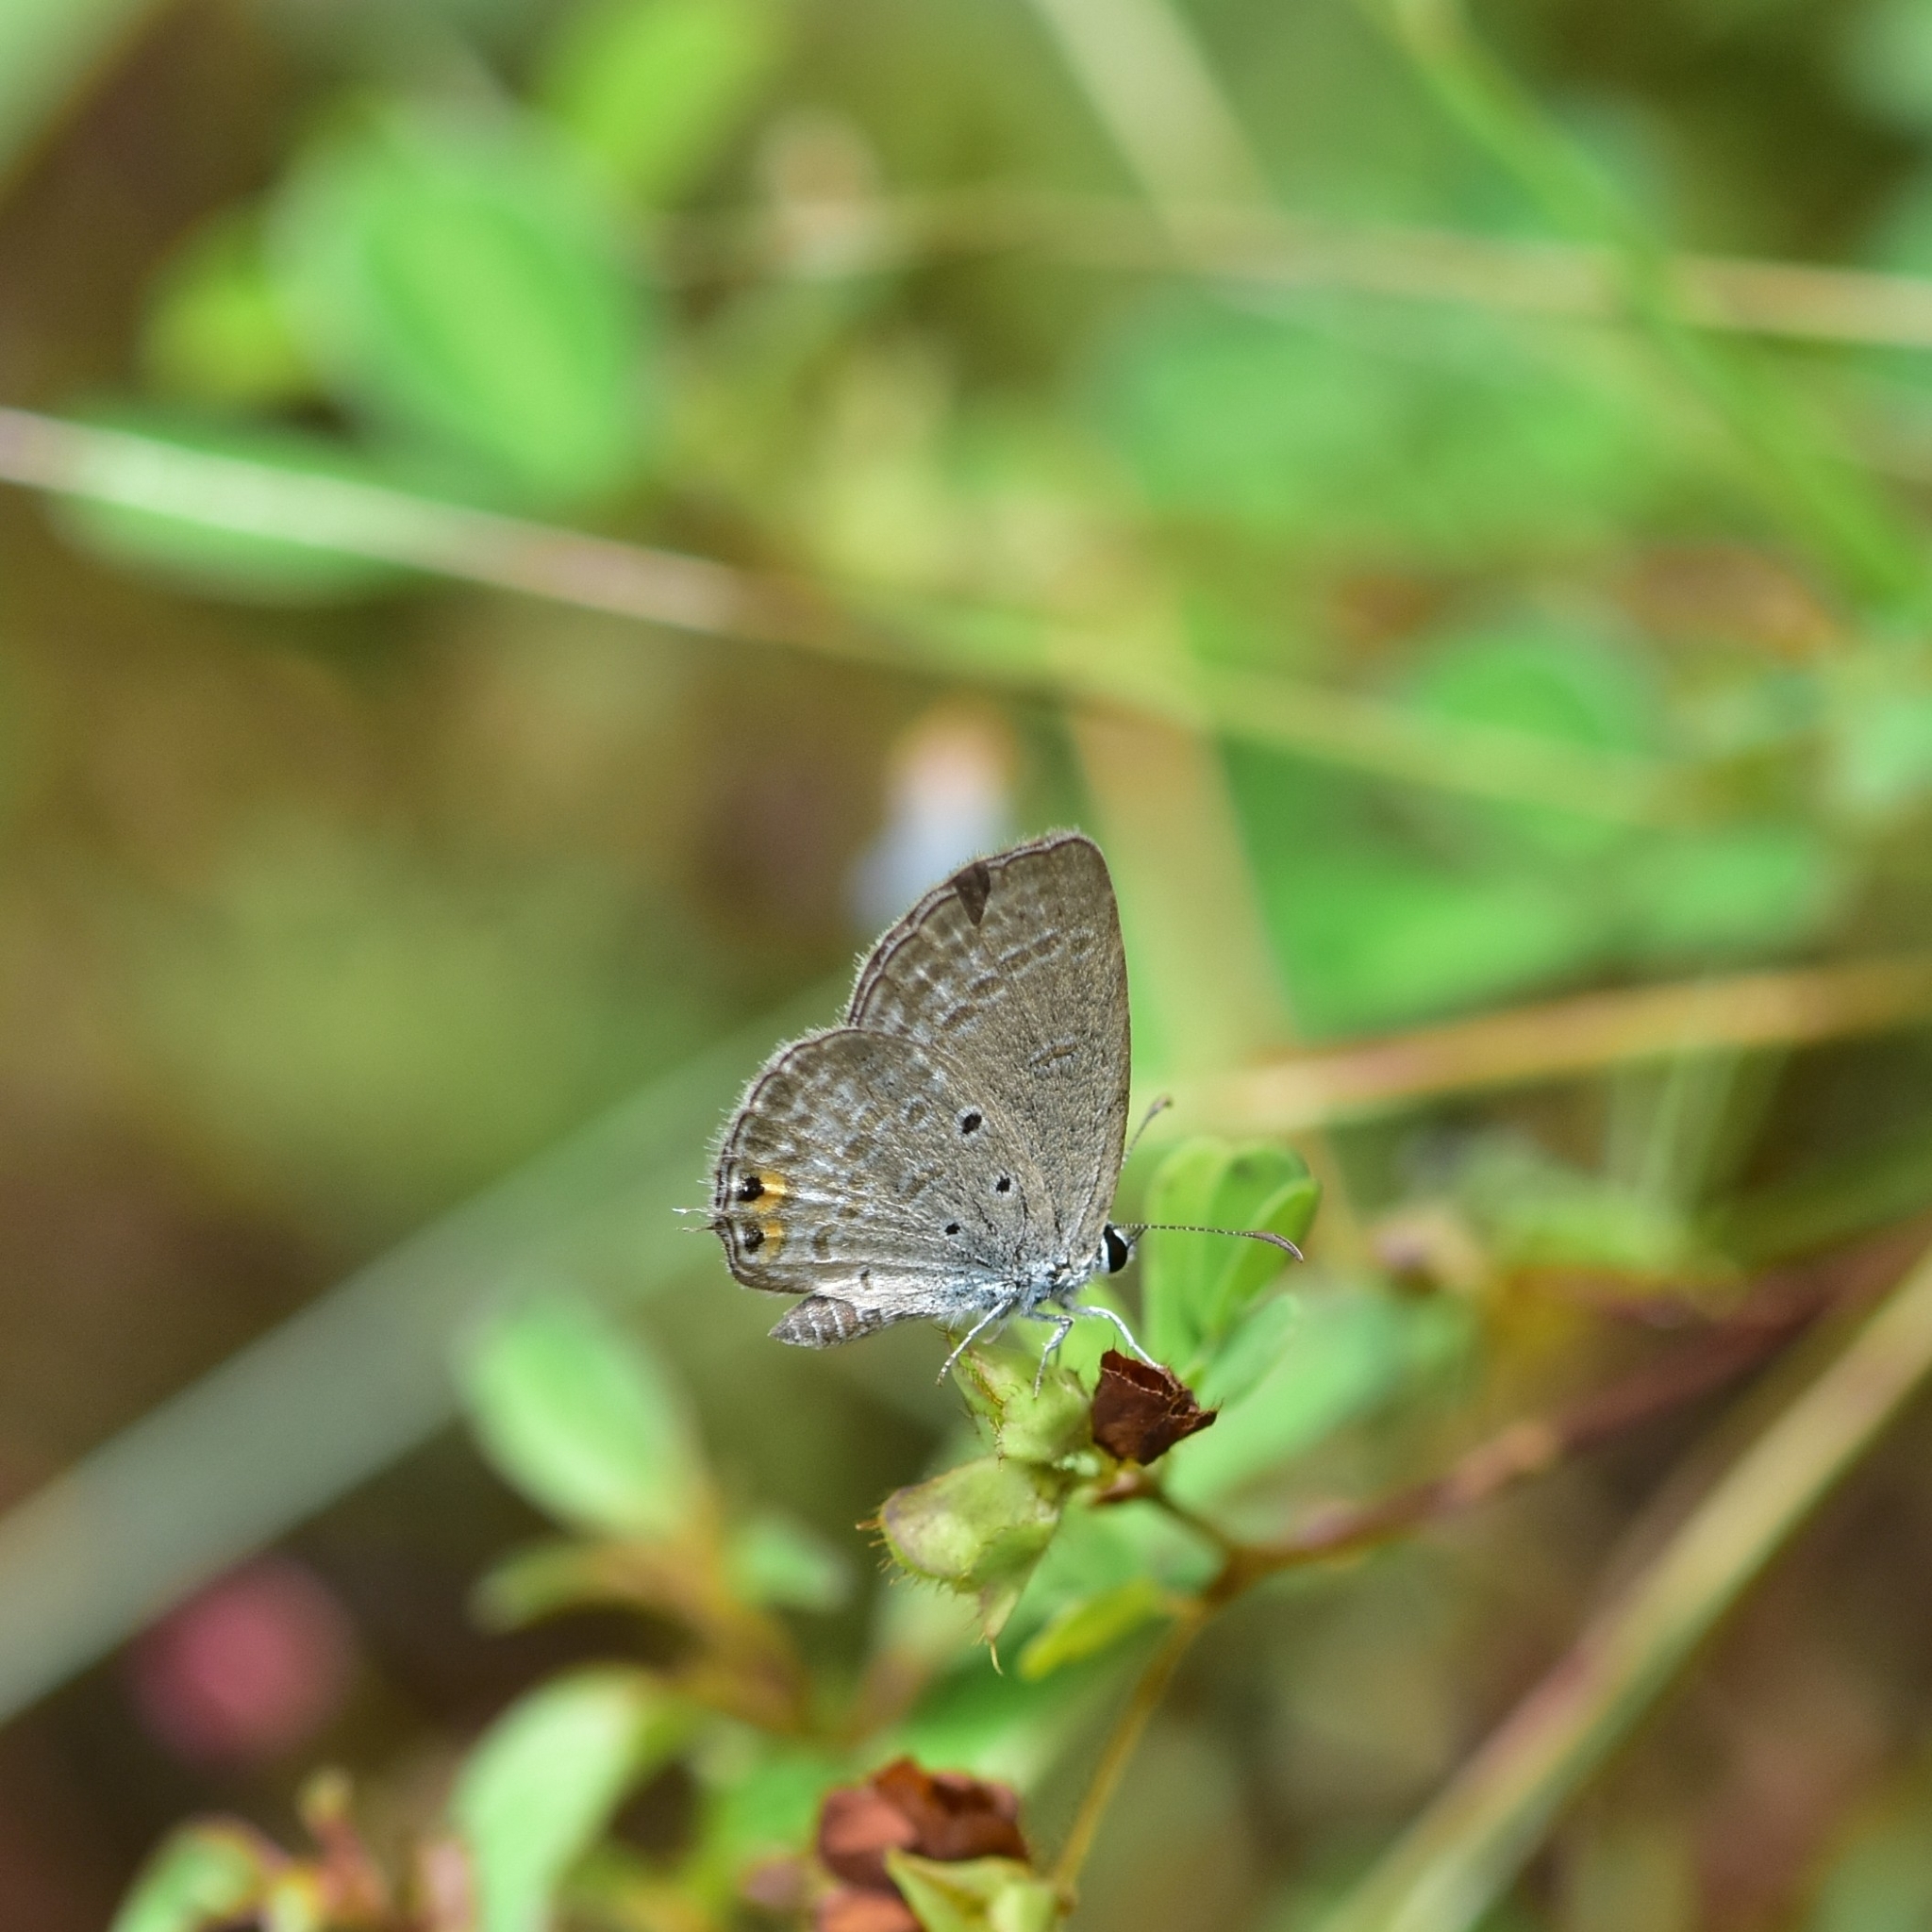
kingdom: Animalia
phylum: Arthropoda
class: Insecta
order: Lepidoptera
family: Lycaenidae
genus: Euchrysops
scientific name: Euchrysops cnejus
